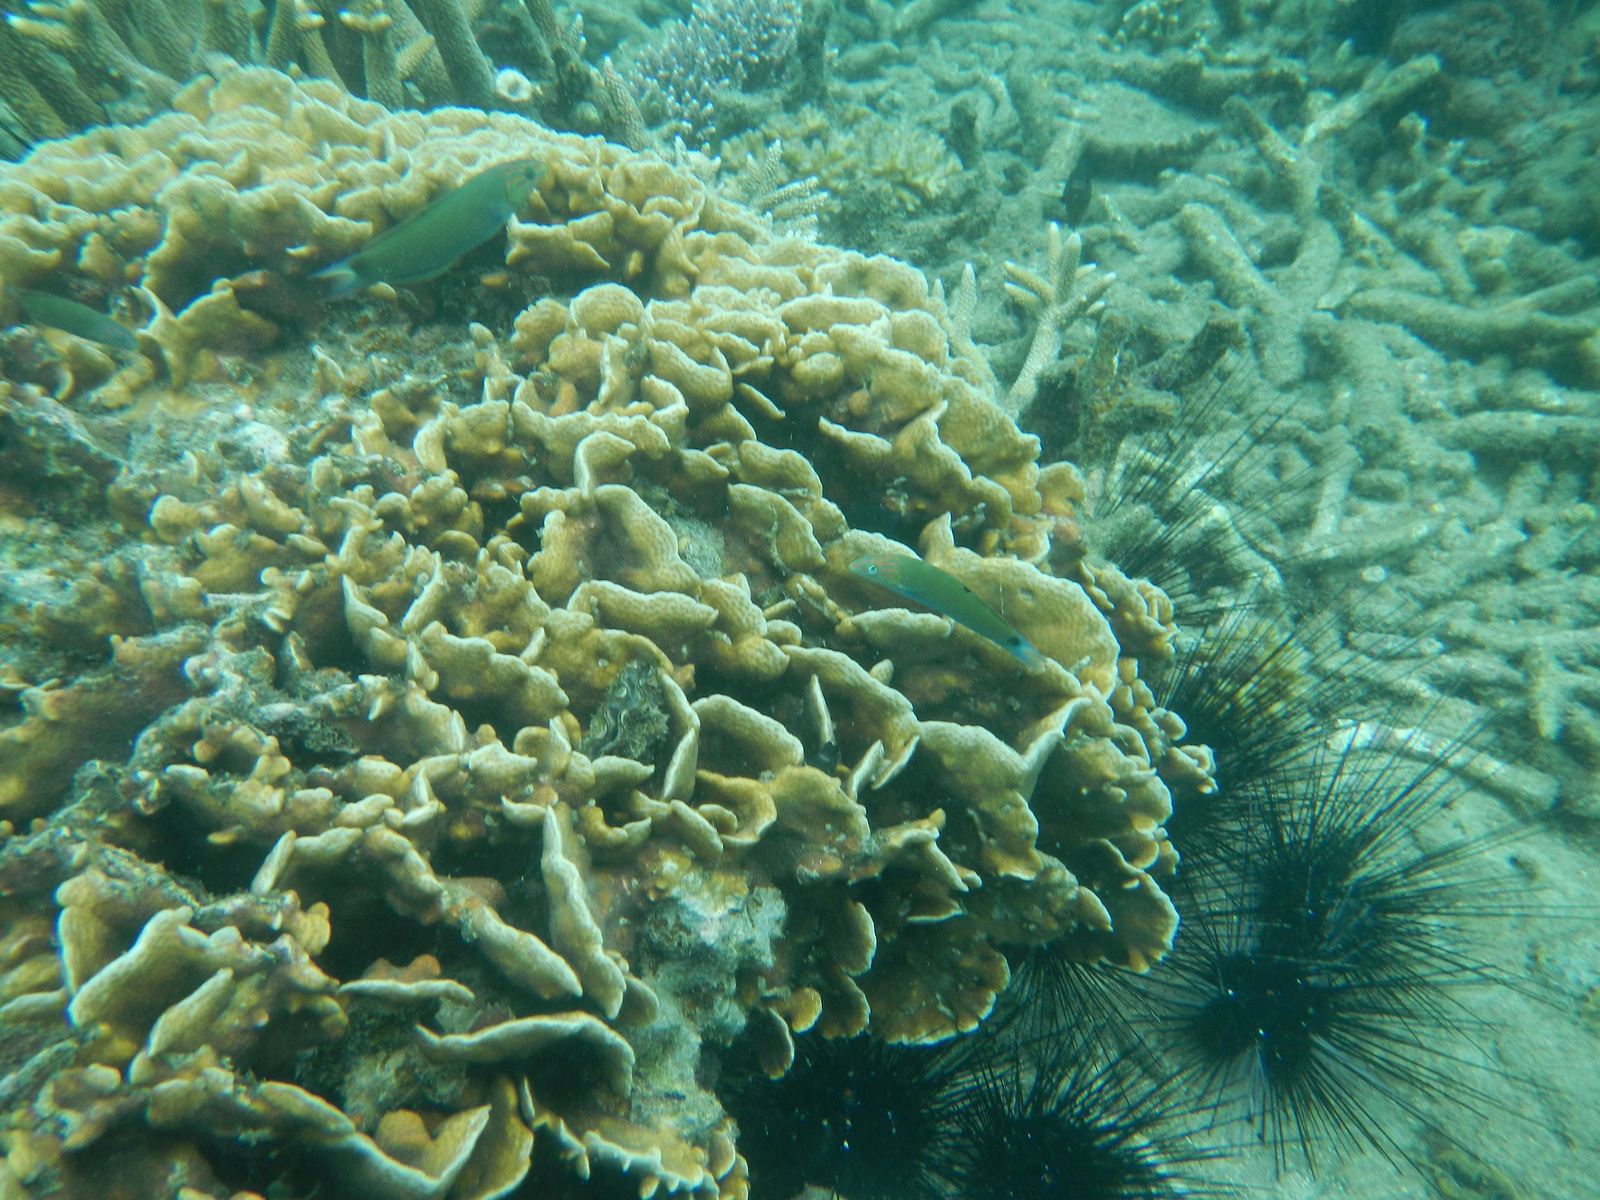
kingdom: Animalia
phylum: Chordata
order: Perciformes
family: Labridae
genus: Thalassoma
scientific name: Thalassoma lunare
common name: Blue wrasse
